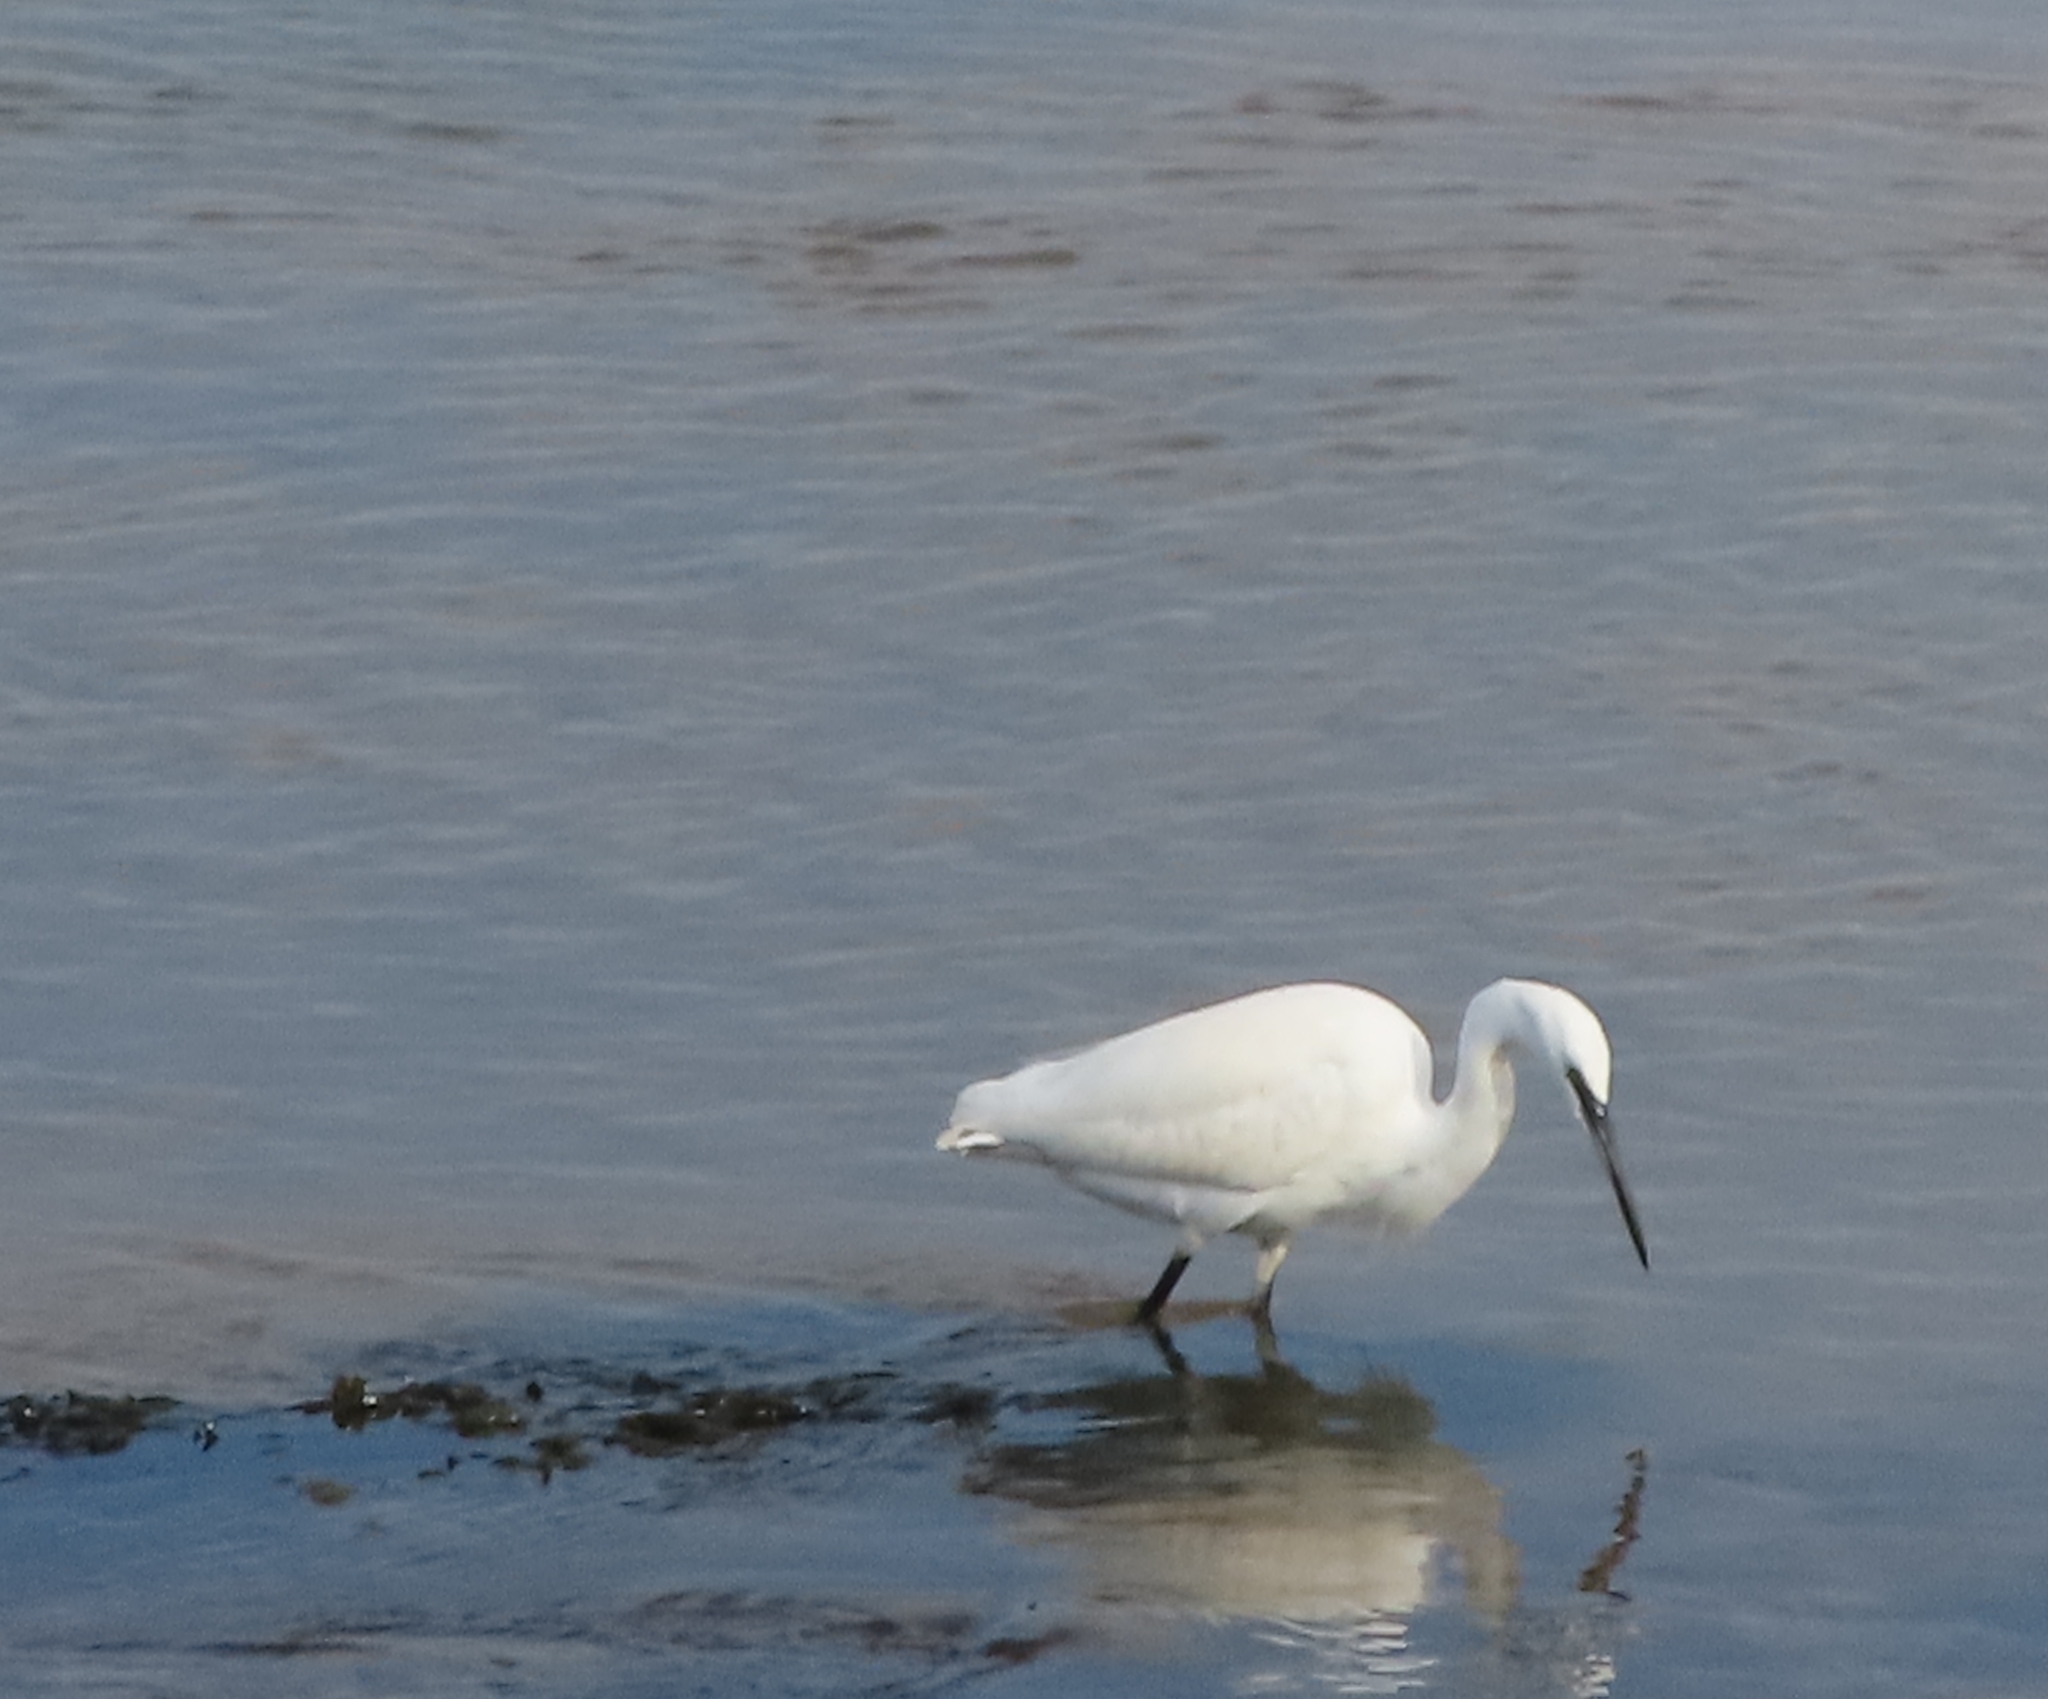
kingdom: Animalia
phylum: Chordata
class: Aves
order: Pelecaniformes
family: Ardeidae
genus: Egretta
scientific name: Egretta garzetta
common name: Little egret
